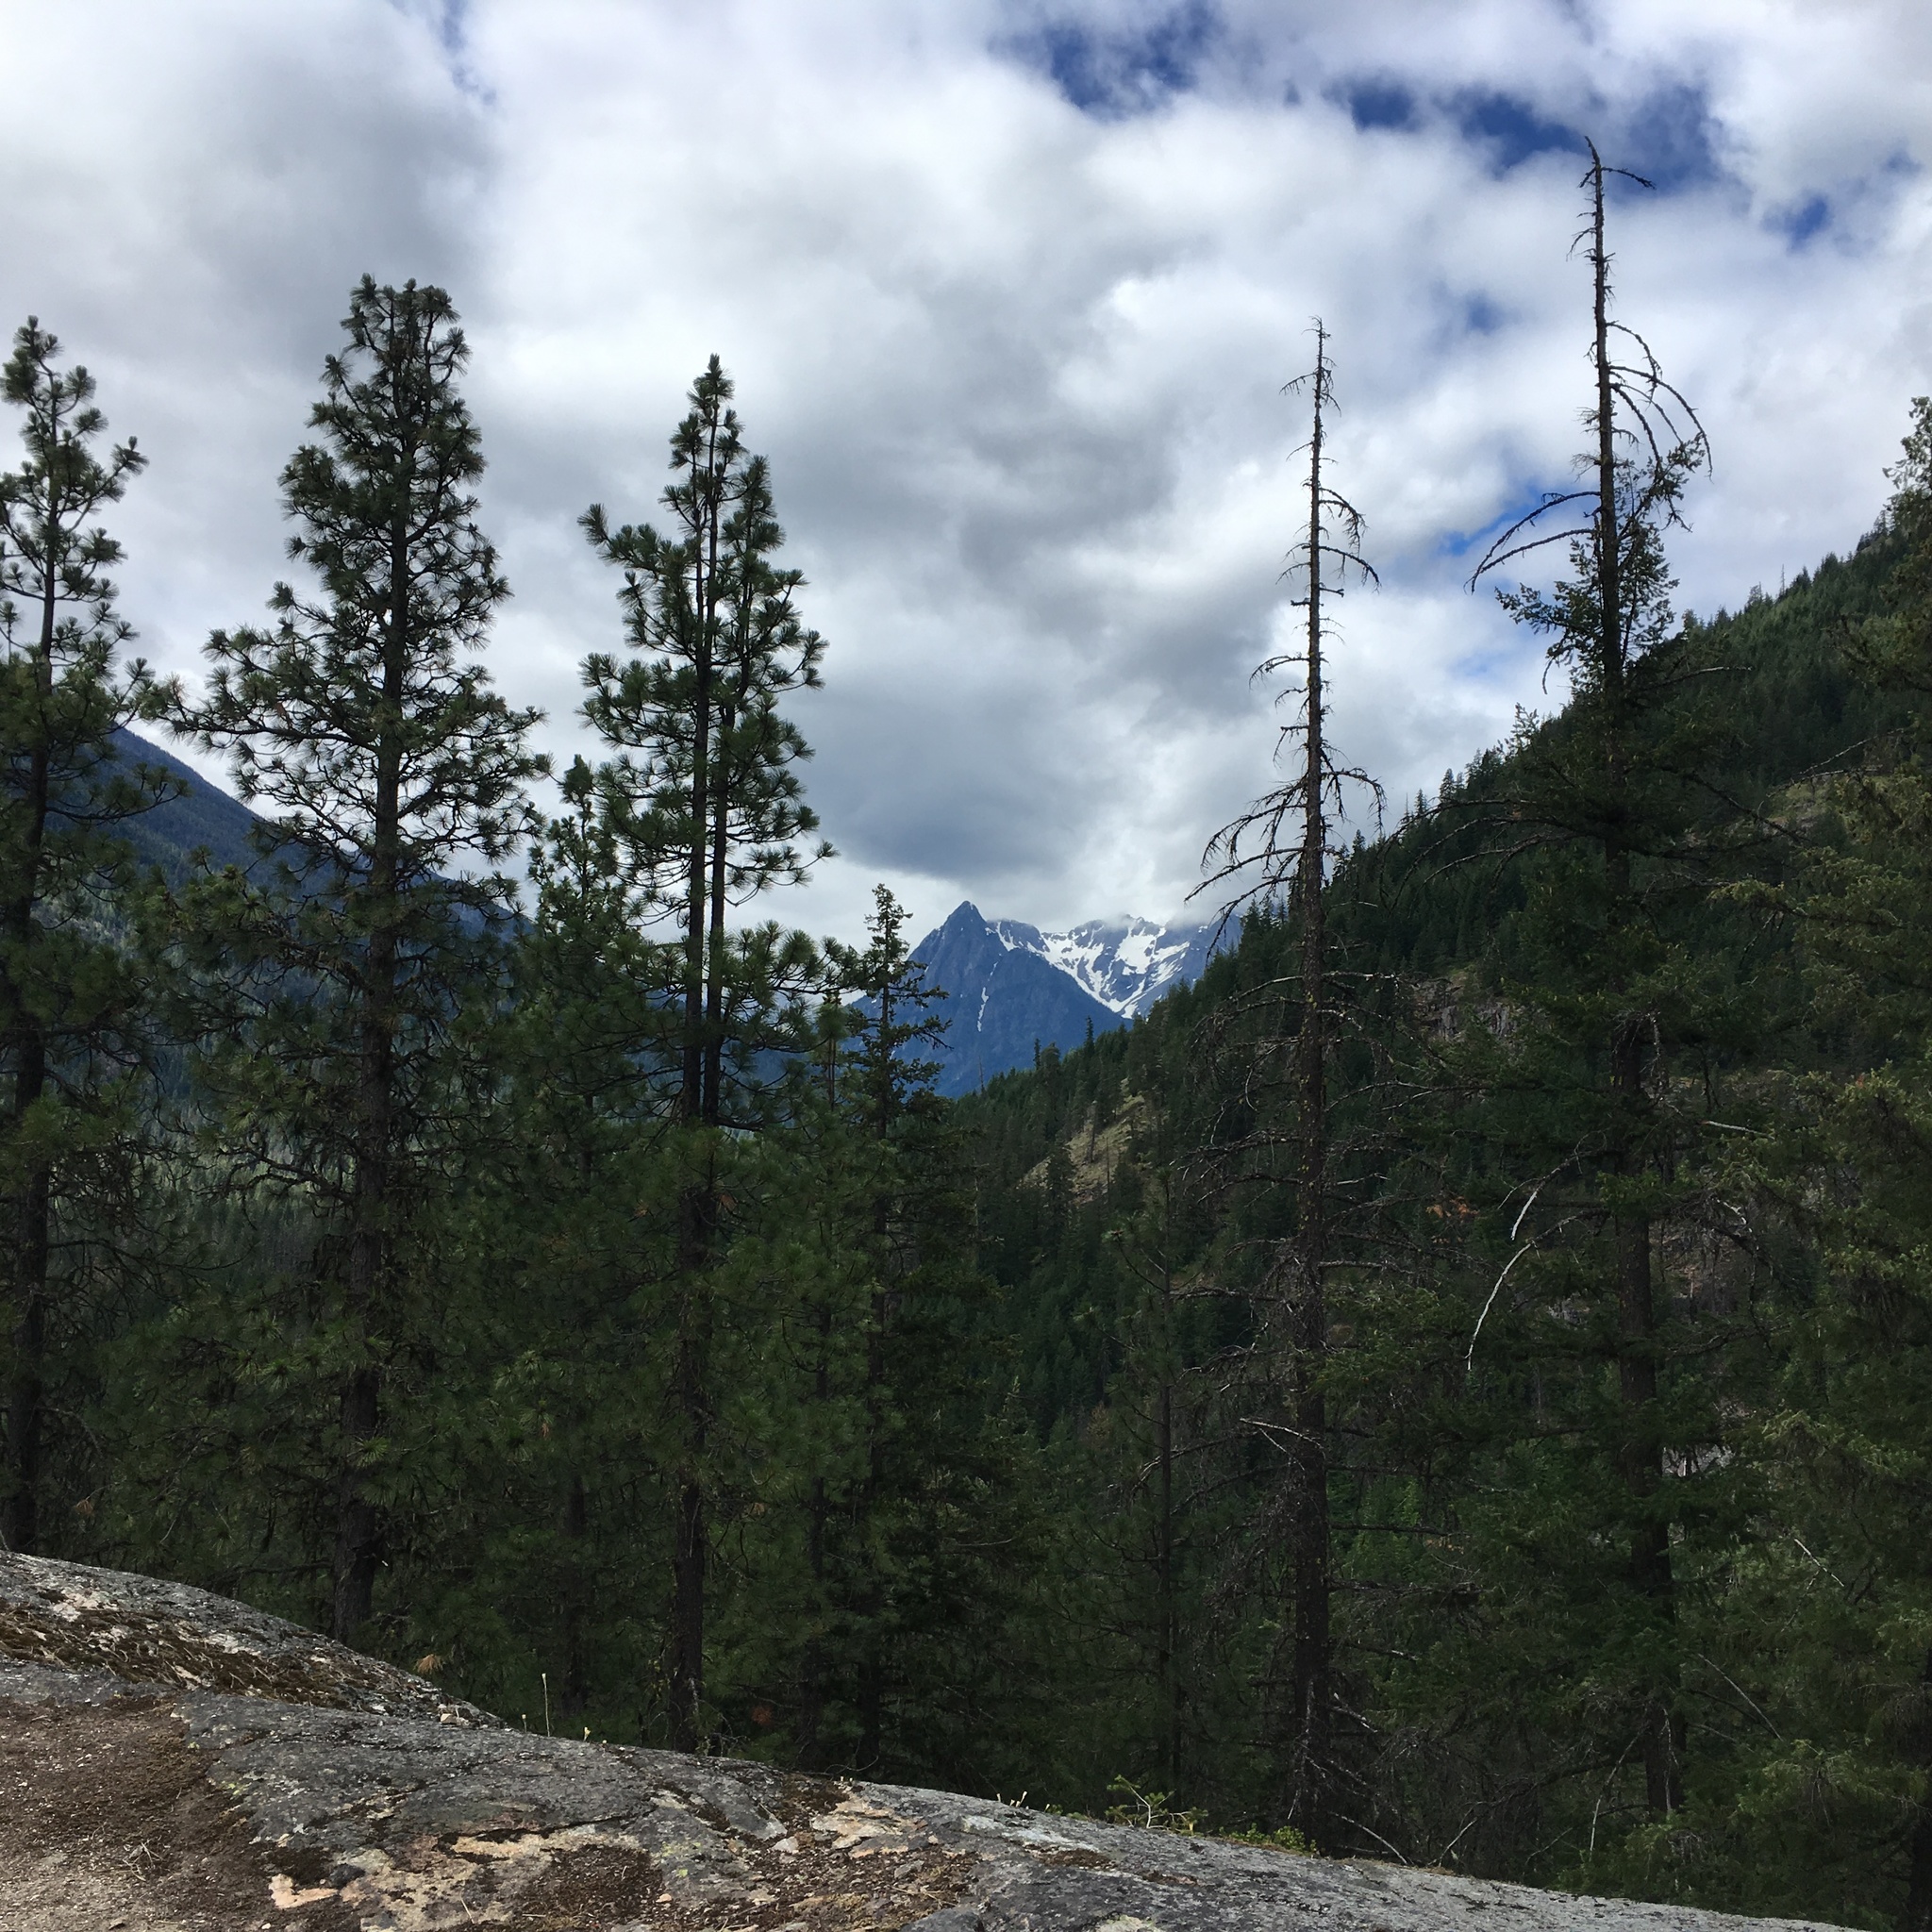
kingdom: Plantae
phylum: Tracheophyta
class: Pinopsida
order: Pinales
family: Pinaceae
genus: Pinus
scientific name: Pinus ponderosa
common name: Western yellow-pine
